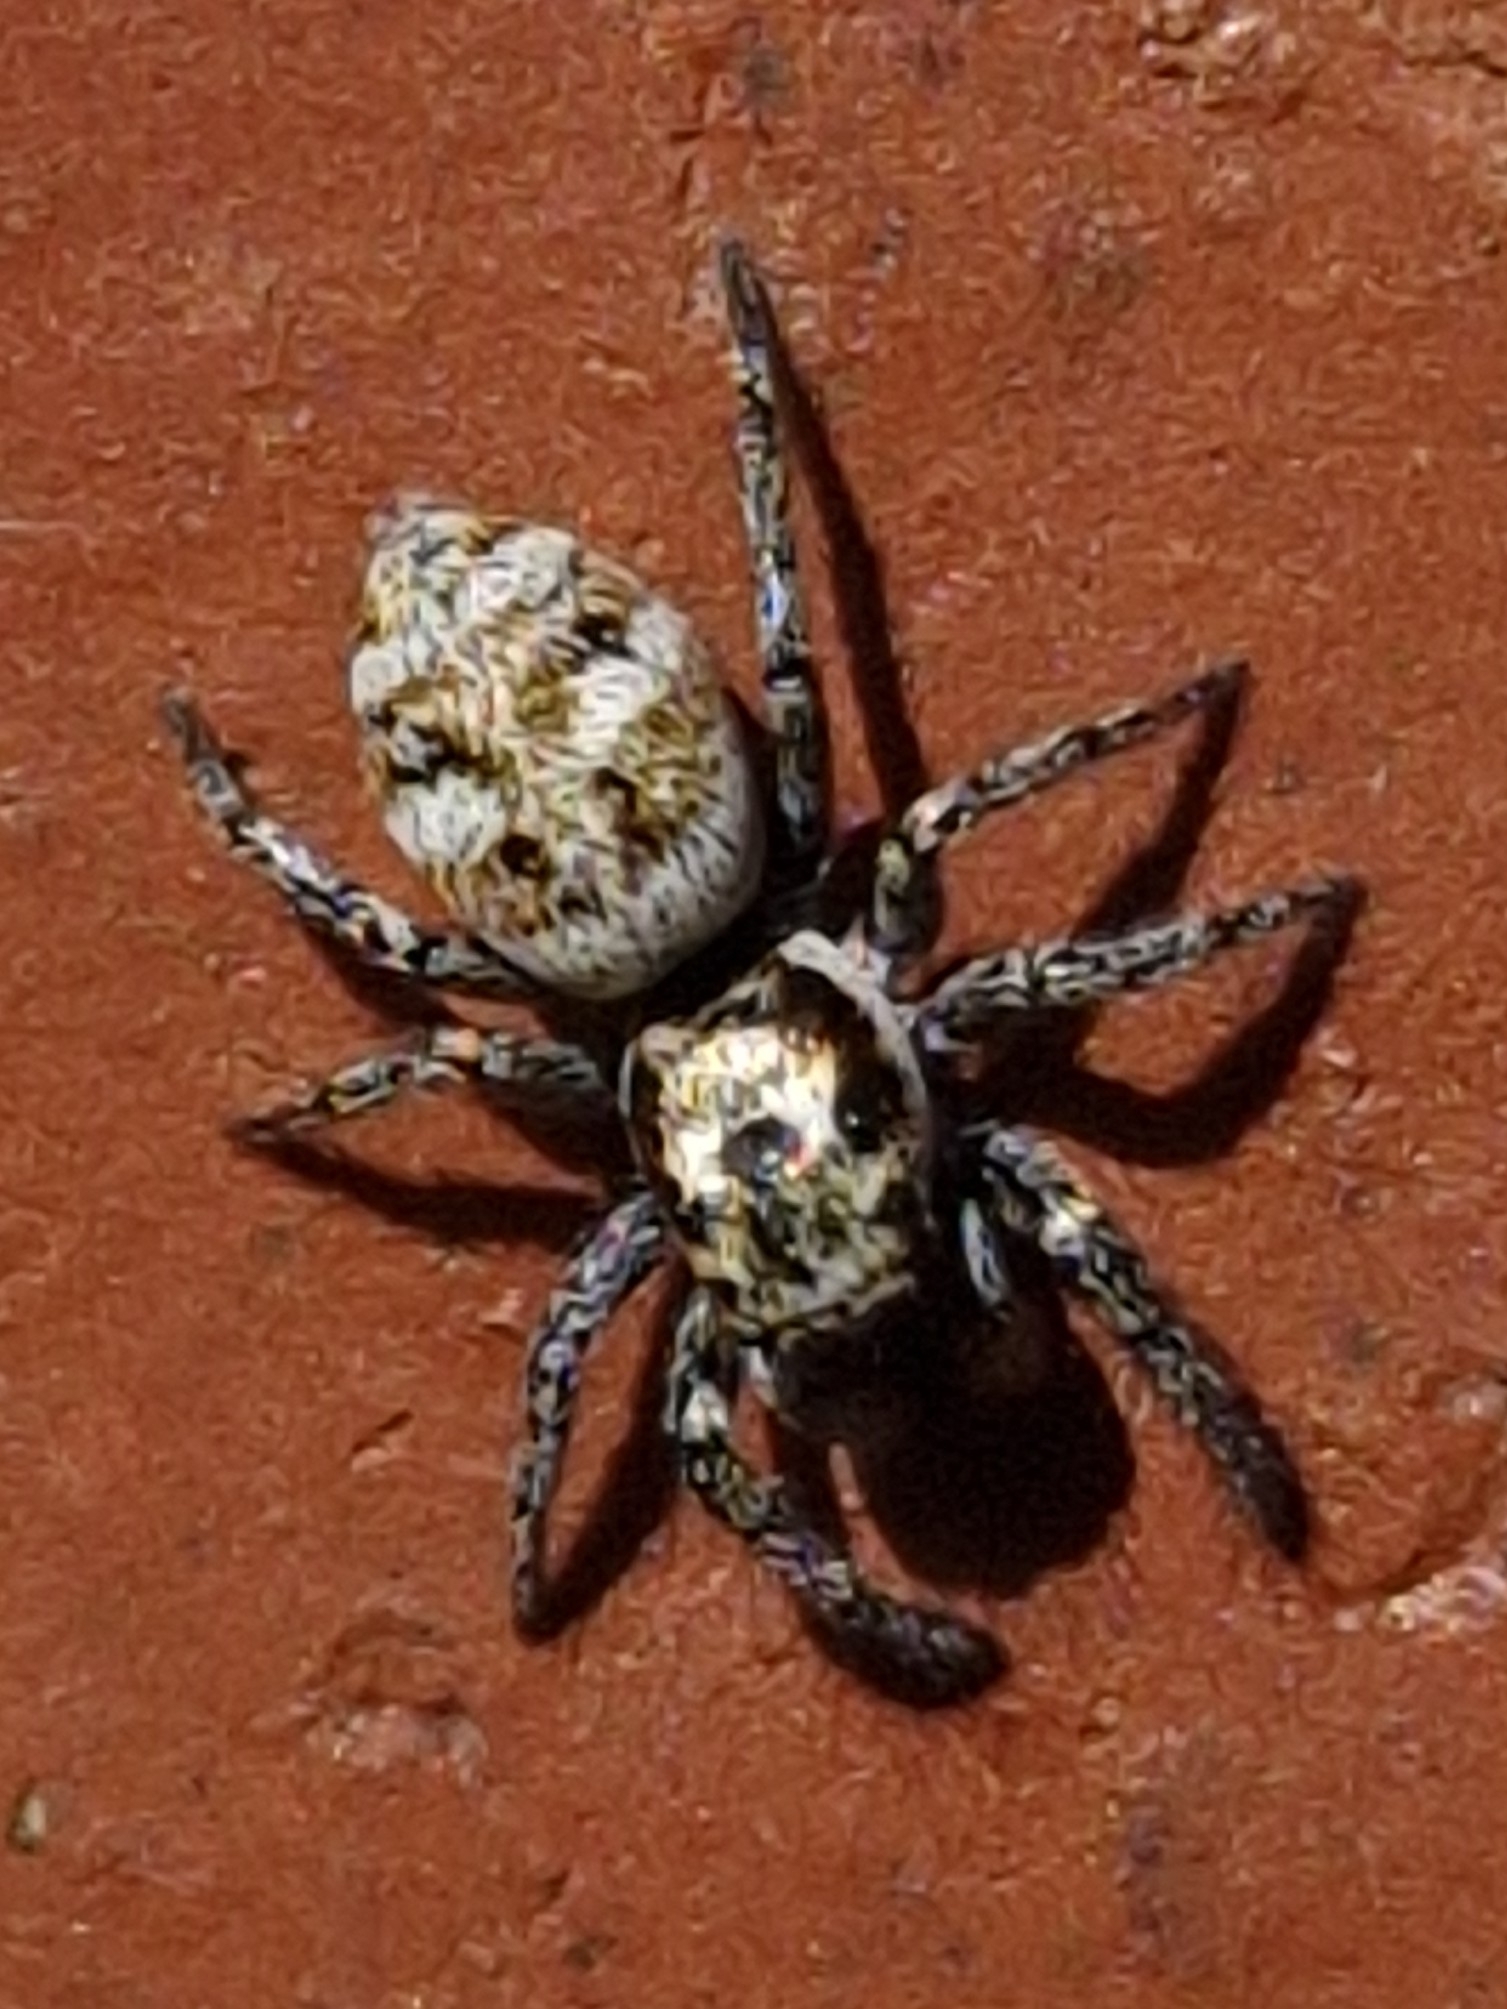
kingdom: Animalia
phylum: Arthropoda
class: Arachnida
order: Araneae
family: Salticidae
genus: Salticus
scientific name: Salticus scenicus
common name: Zebra jumper
